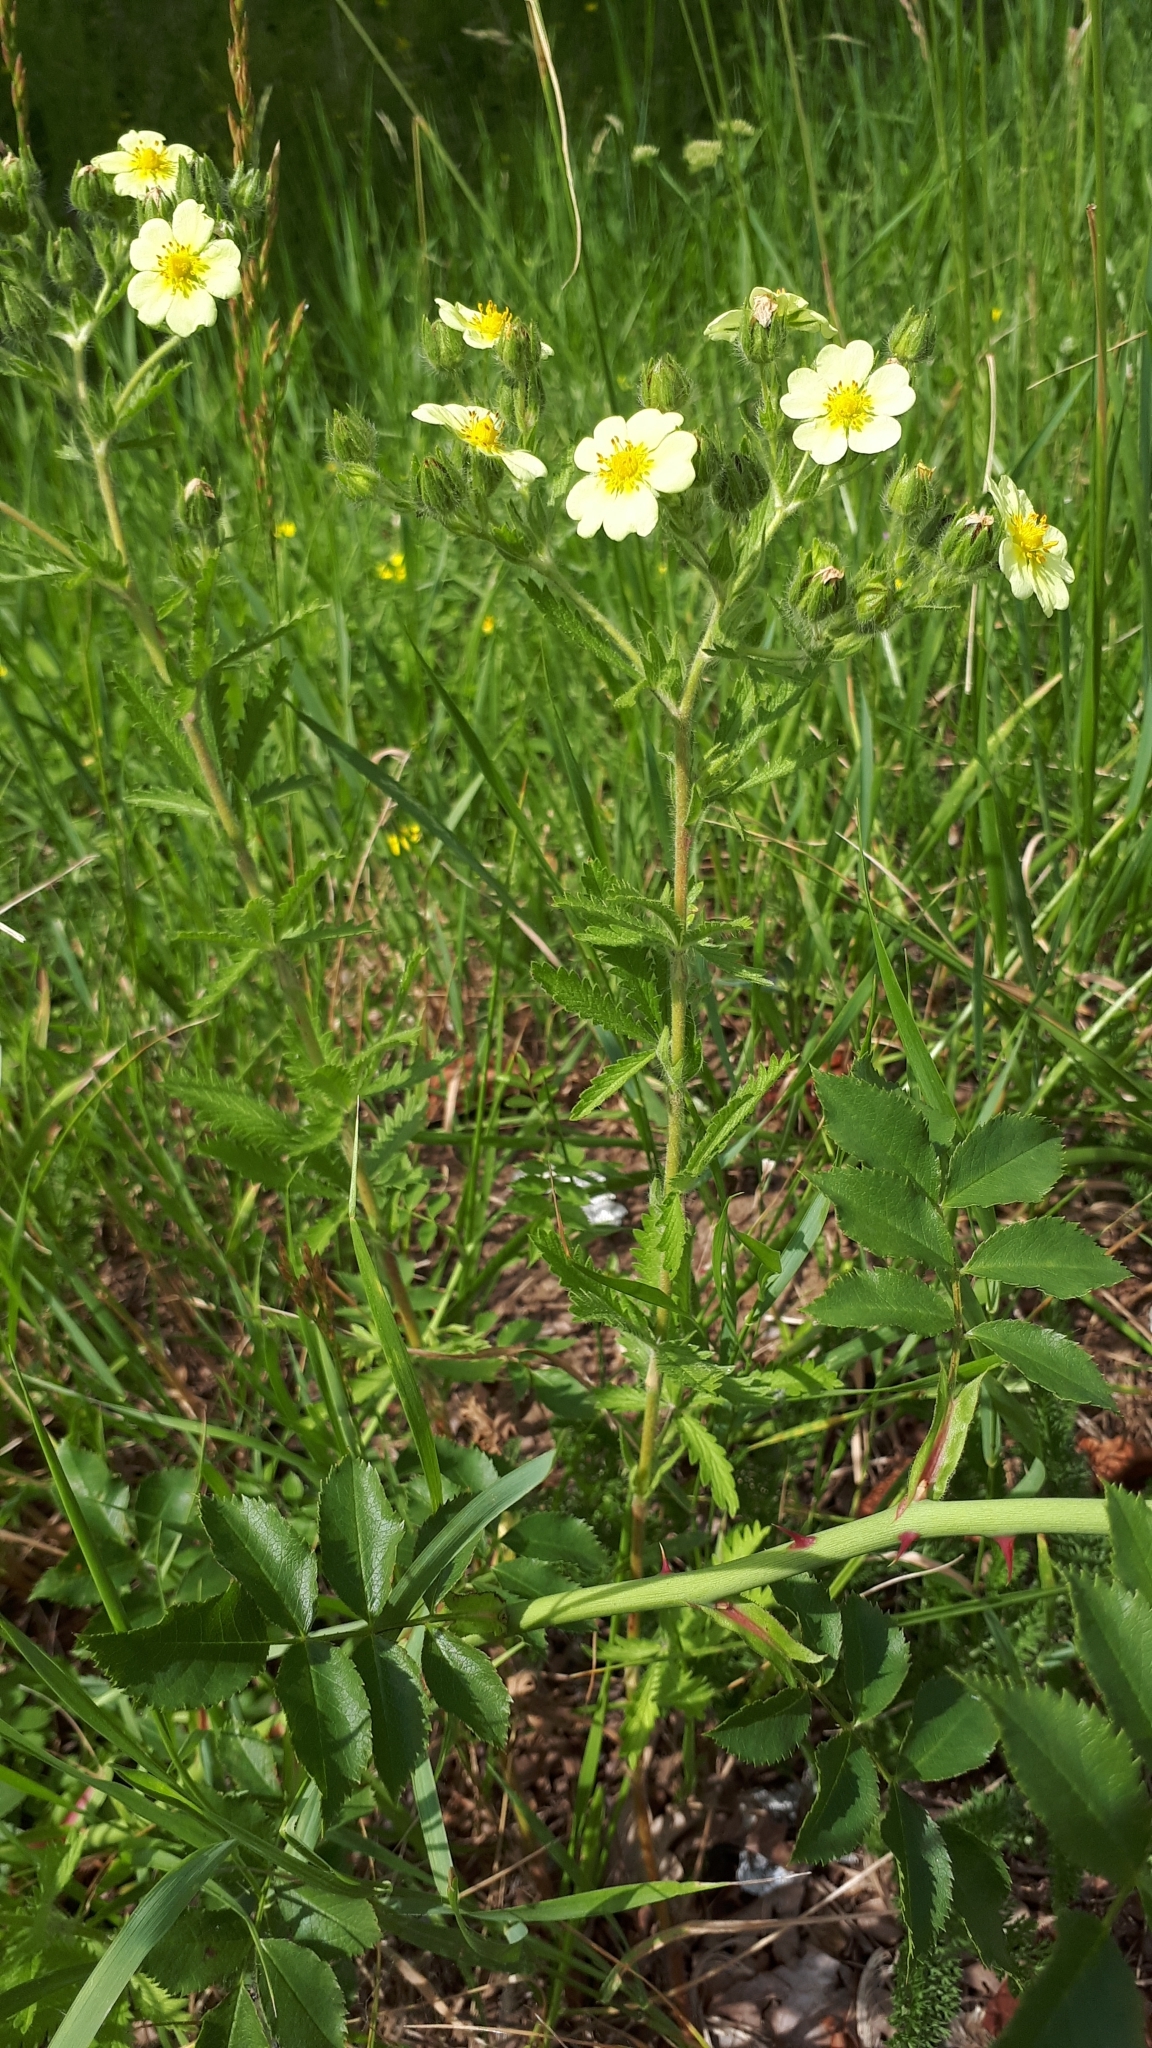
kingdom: Plantae
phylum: Tracheophyta
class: Magnoliopsida
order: Rosales
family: Rosaceae
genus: Potentilla
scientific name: Potentilla recta
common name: Sulphur cinquefoil
